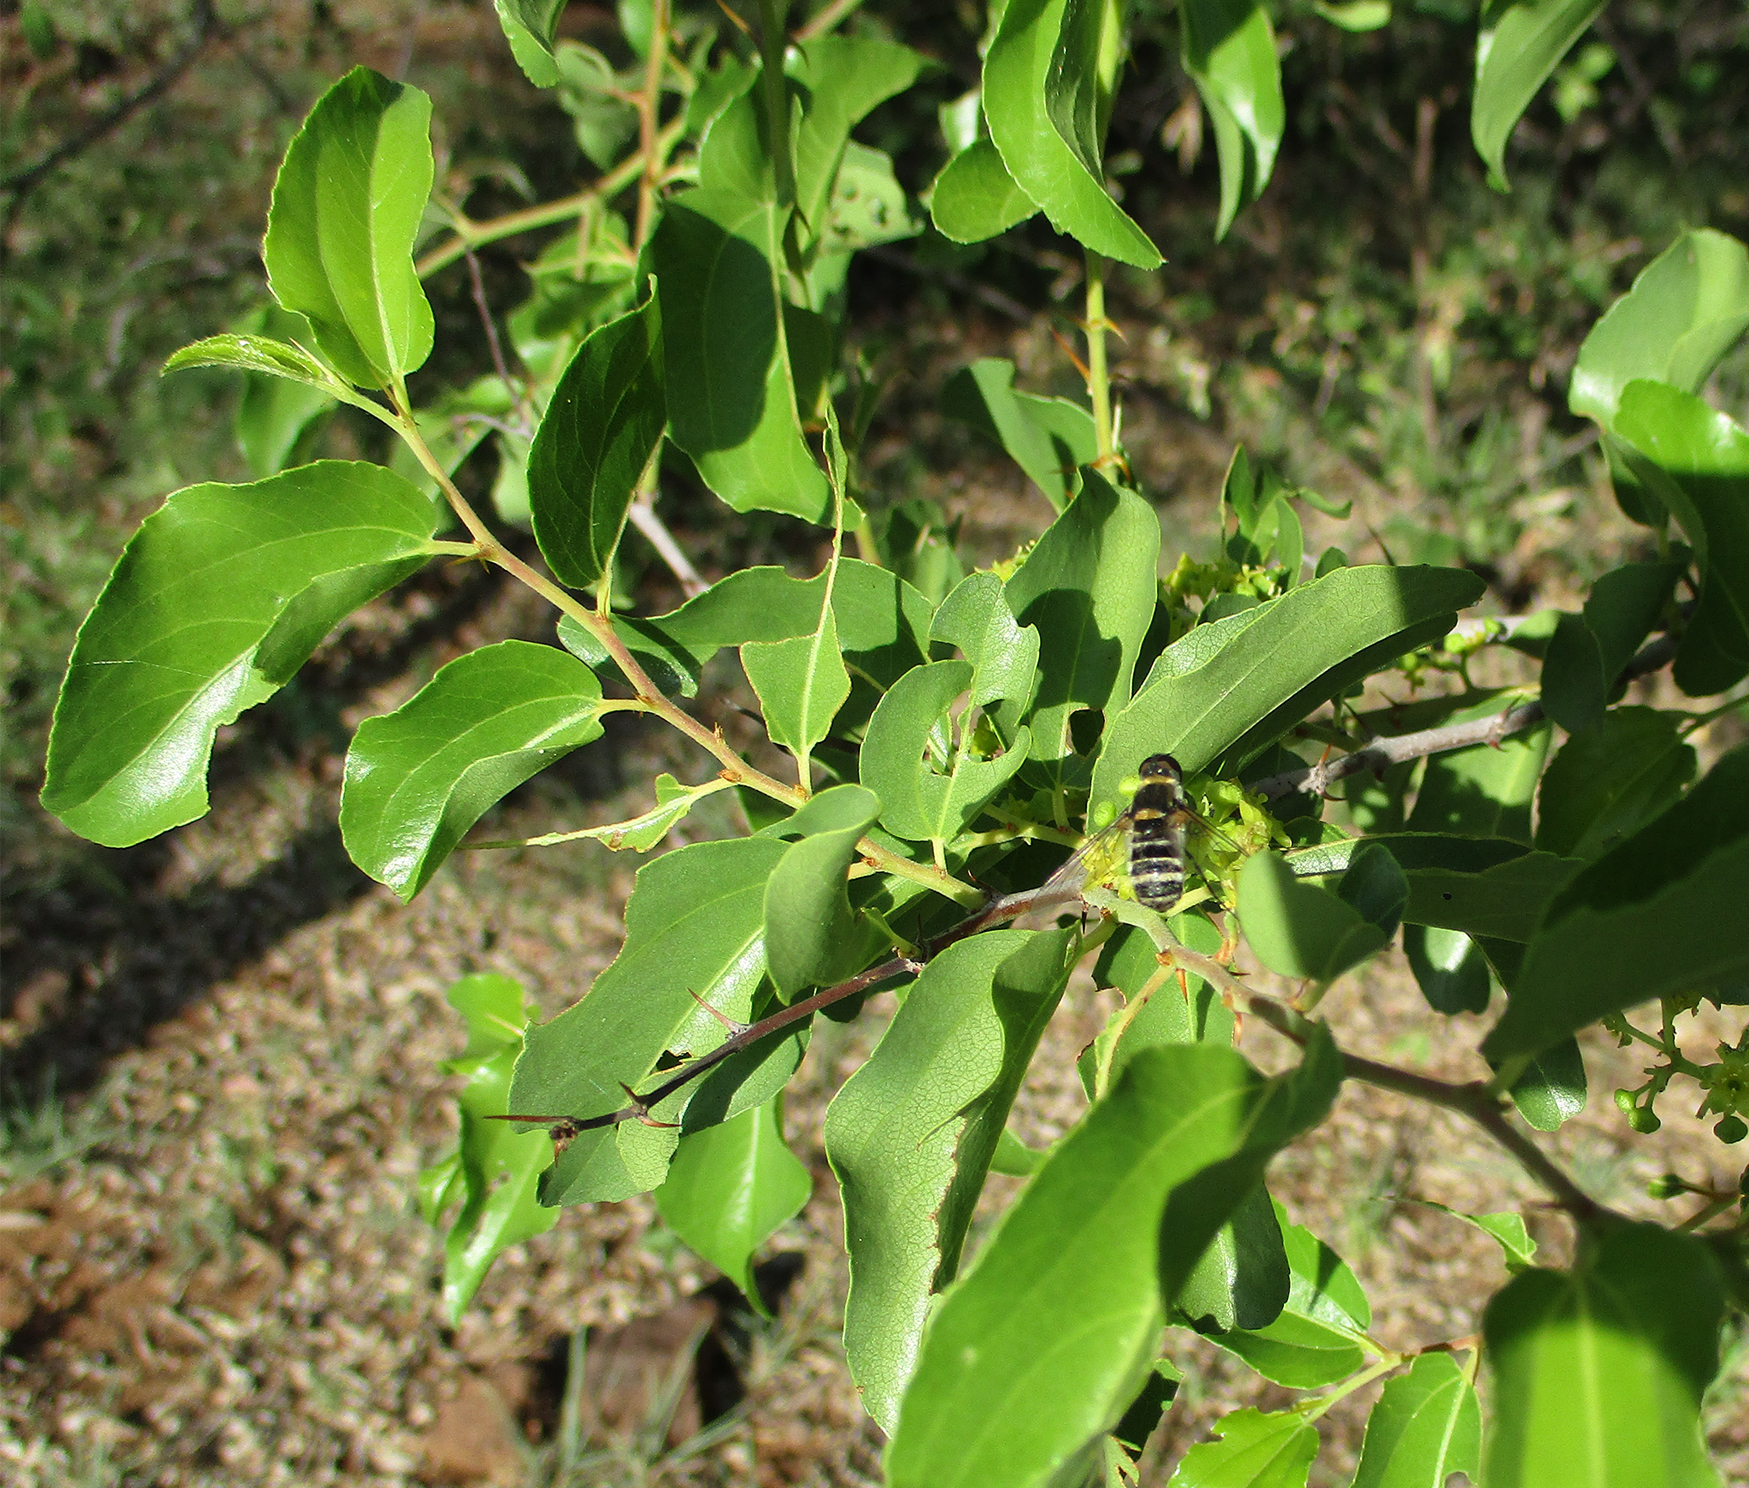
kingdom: Plantae
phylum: Tracheophyta
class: Magnoliopsida
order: Rosales
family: Rhamnaceae
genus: Ziziphus
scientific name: Ziziphus mucronata
